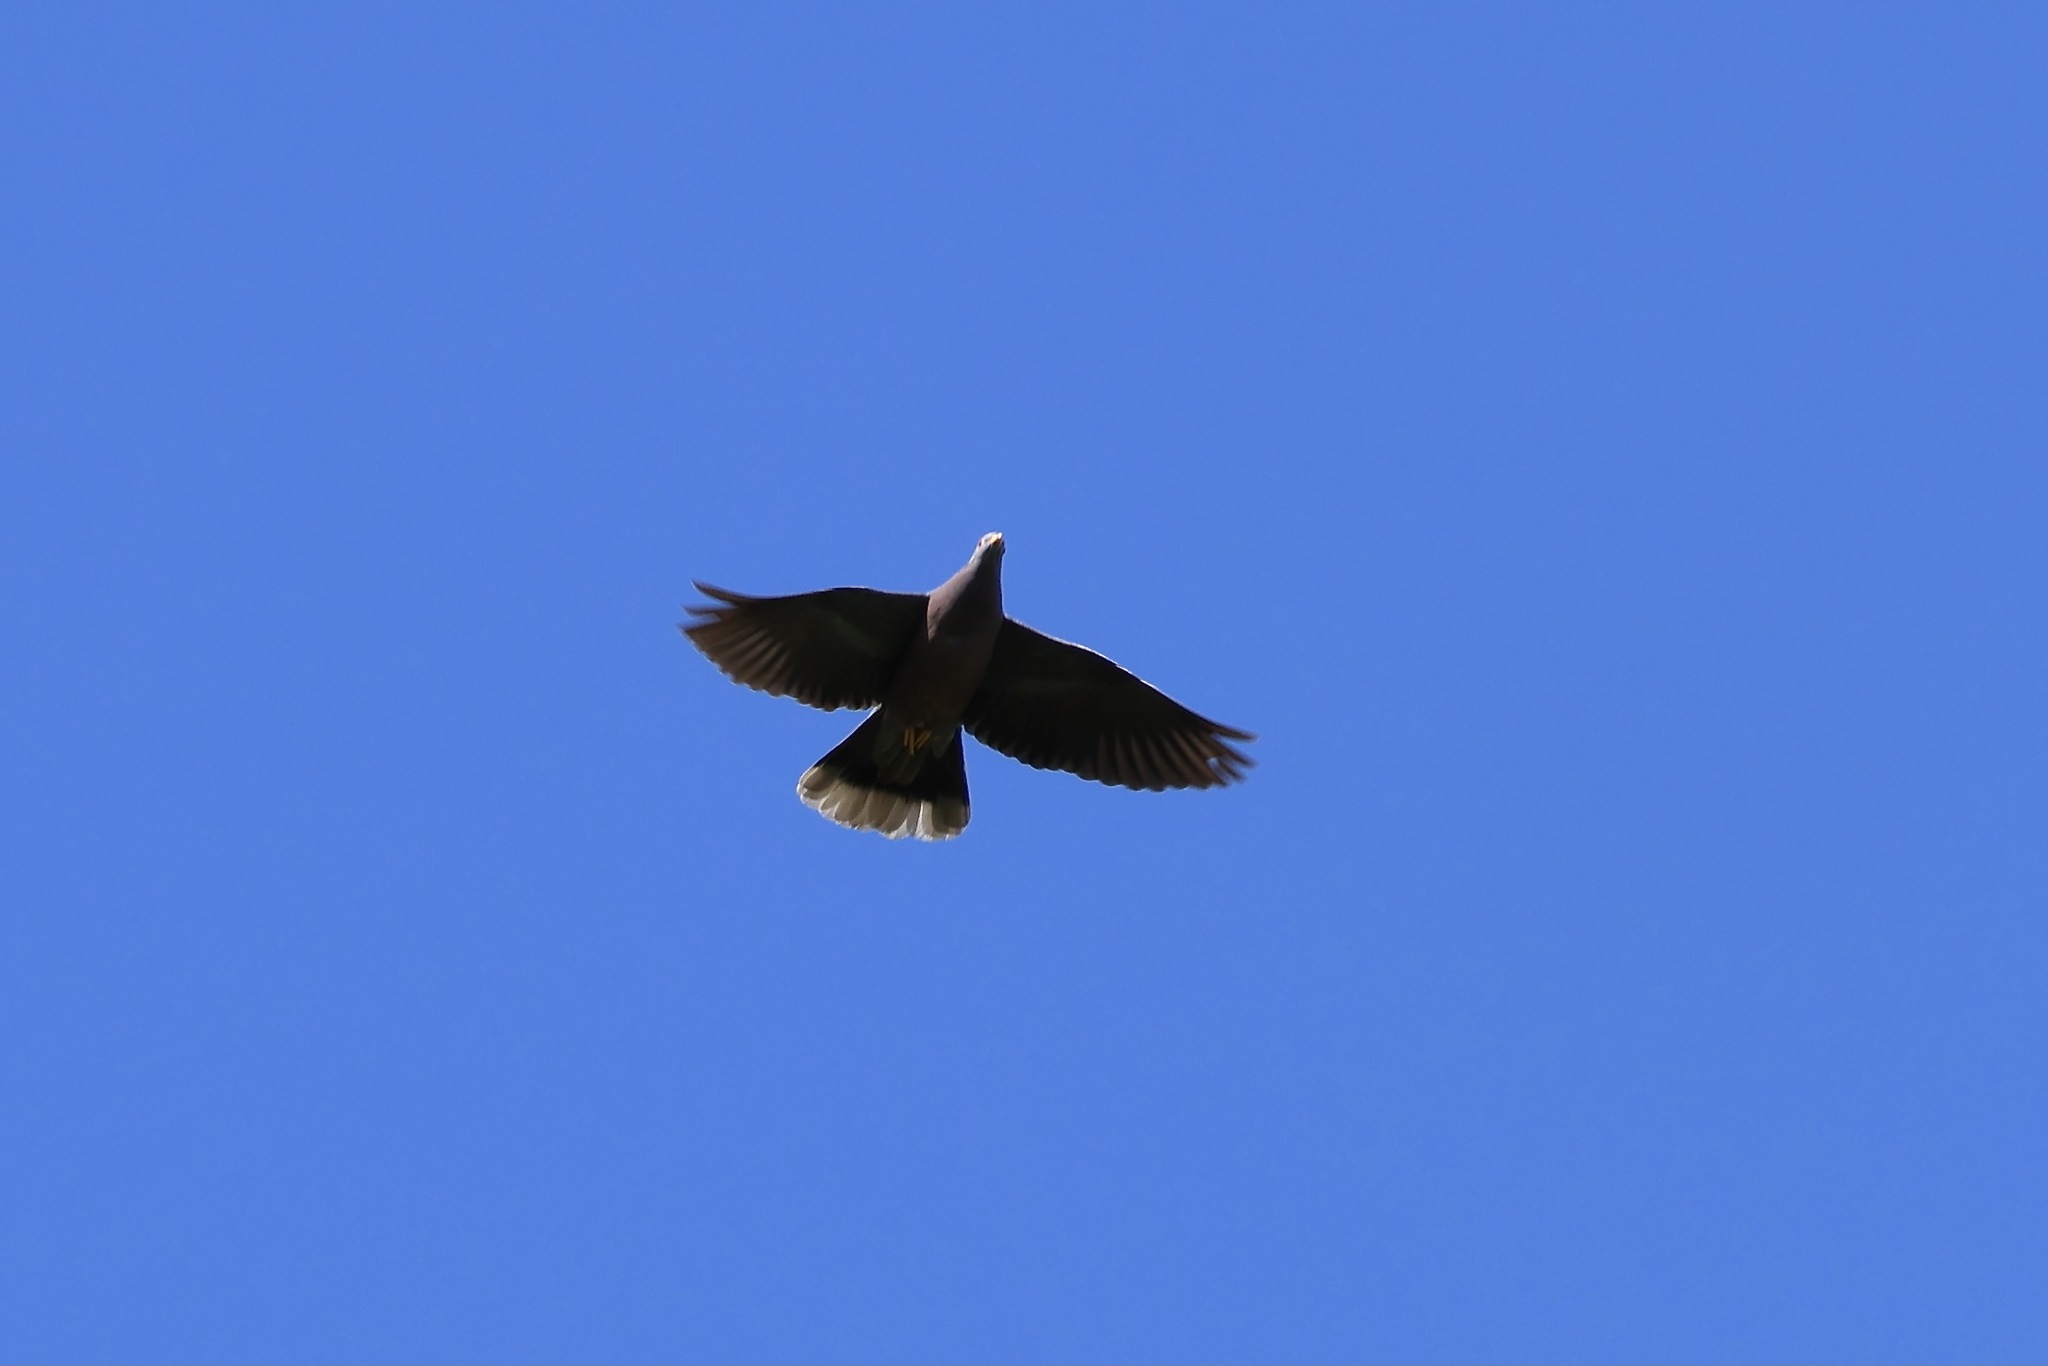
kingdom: Animalia
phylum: Chordata
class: Aves
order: Columbiformes
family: Columbidae
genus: Patagioenas
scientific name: Patagioenas fasciata
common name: Band-tailed pigeon
